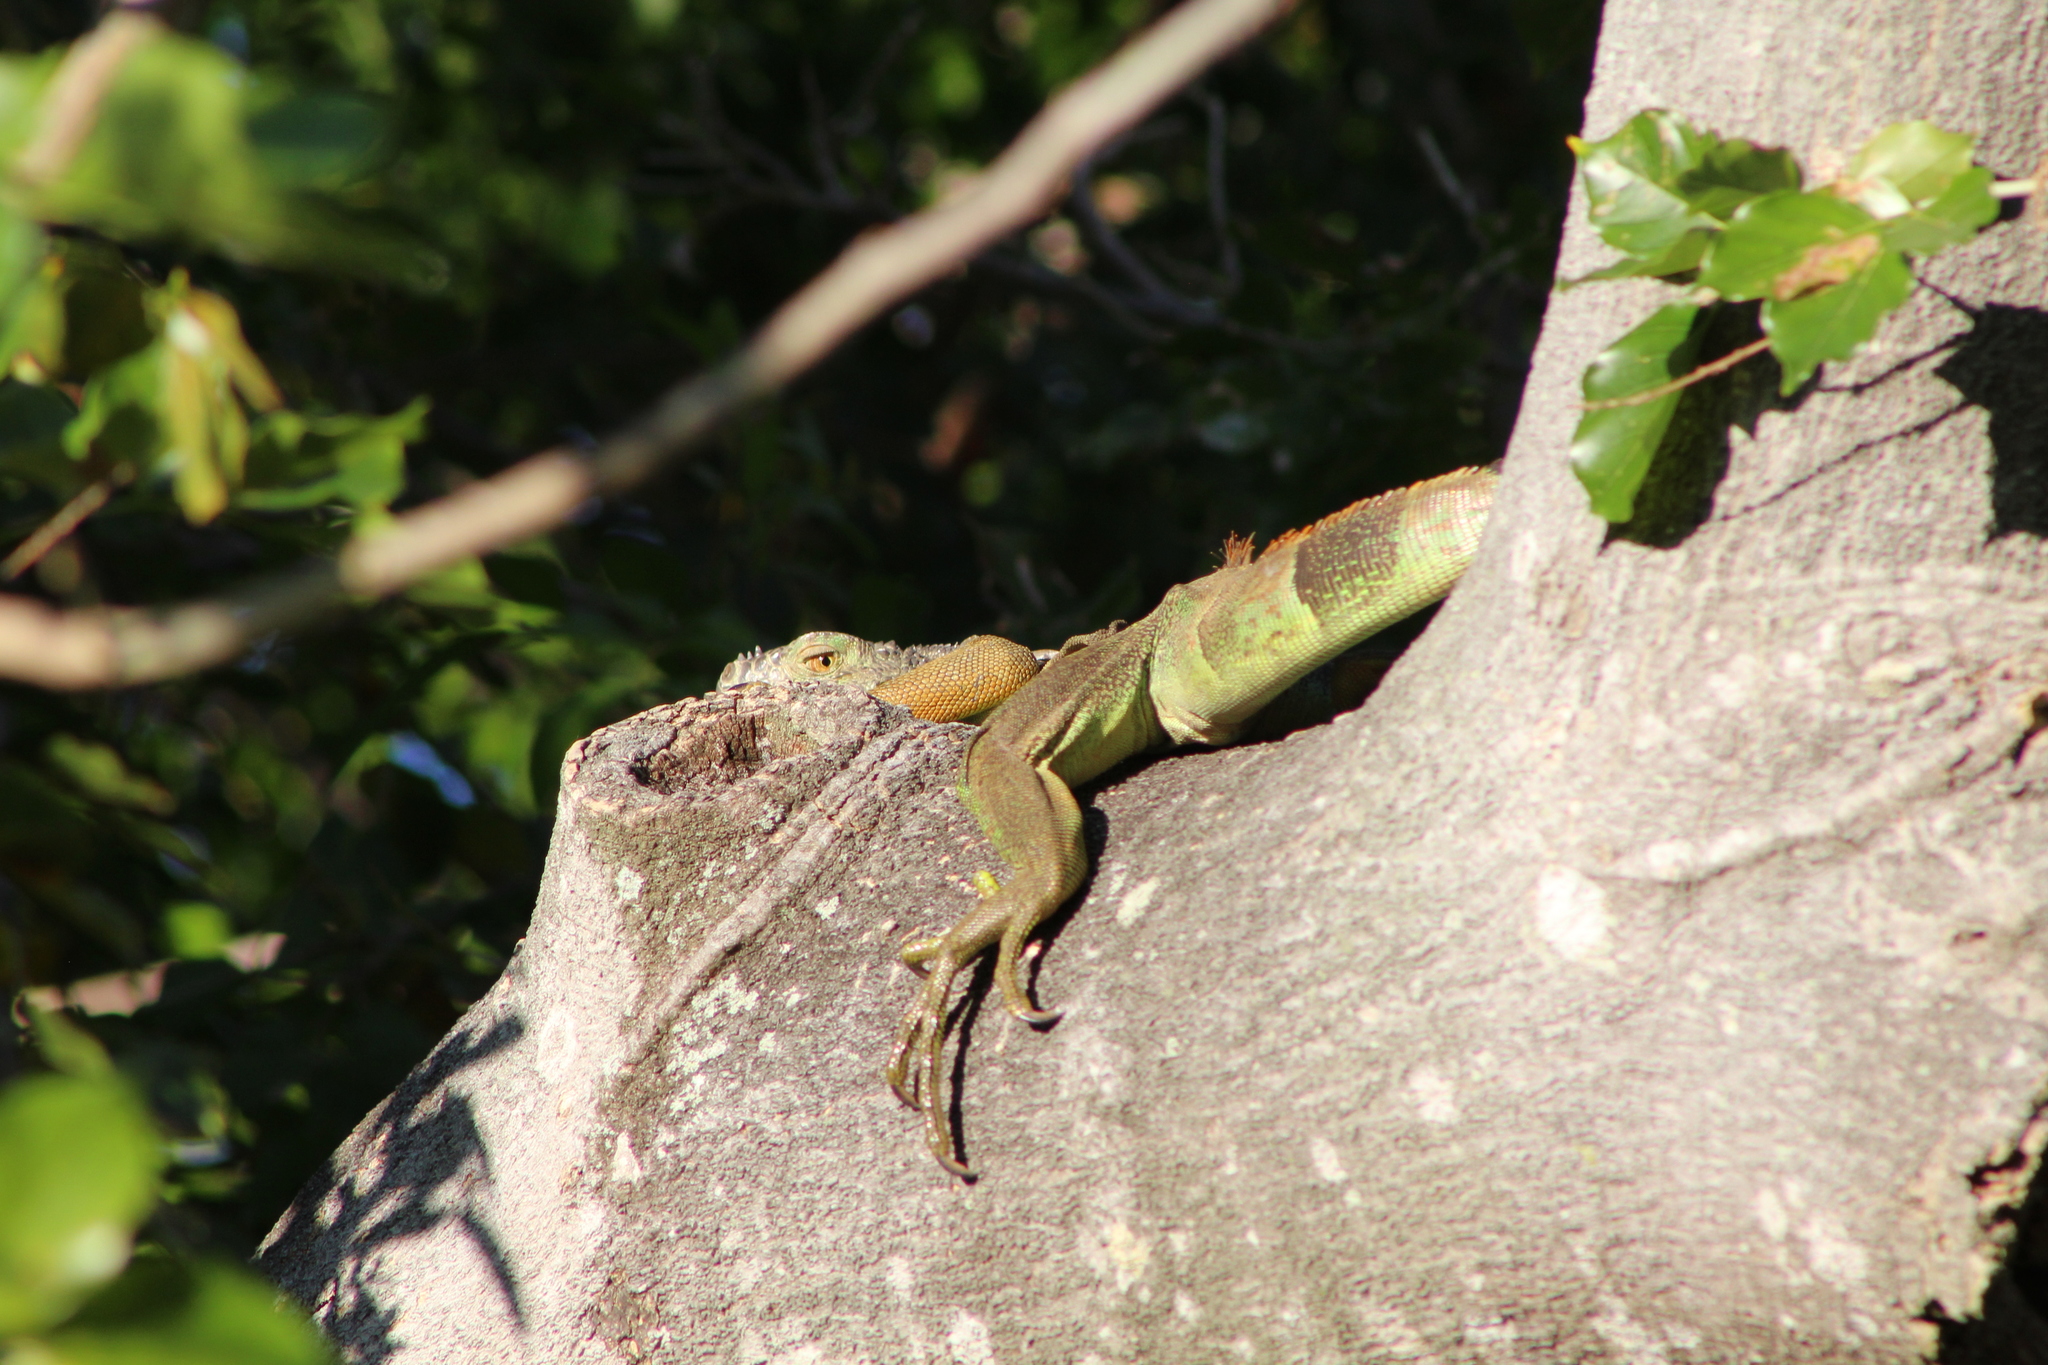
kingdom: Animalia
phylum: Chordata
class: Squamata
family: Iguanidae
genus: Iguana
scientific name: Iguana iguana
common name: Green iguana
